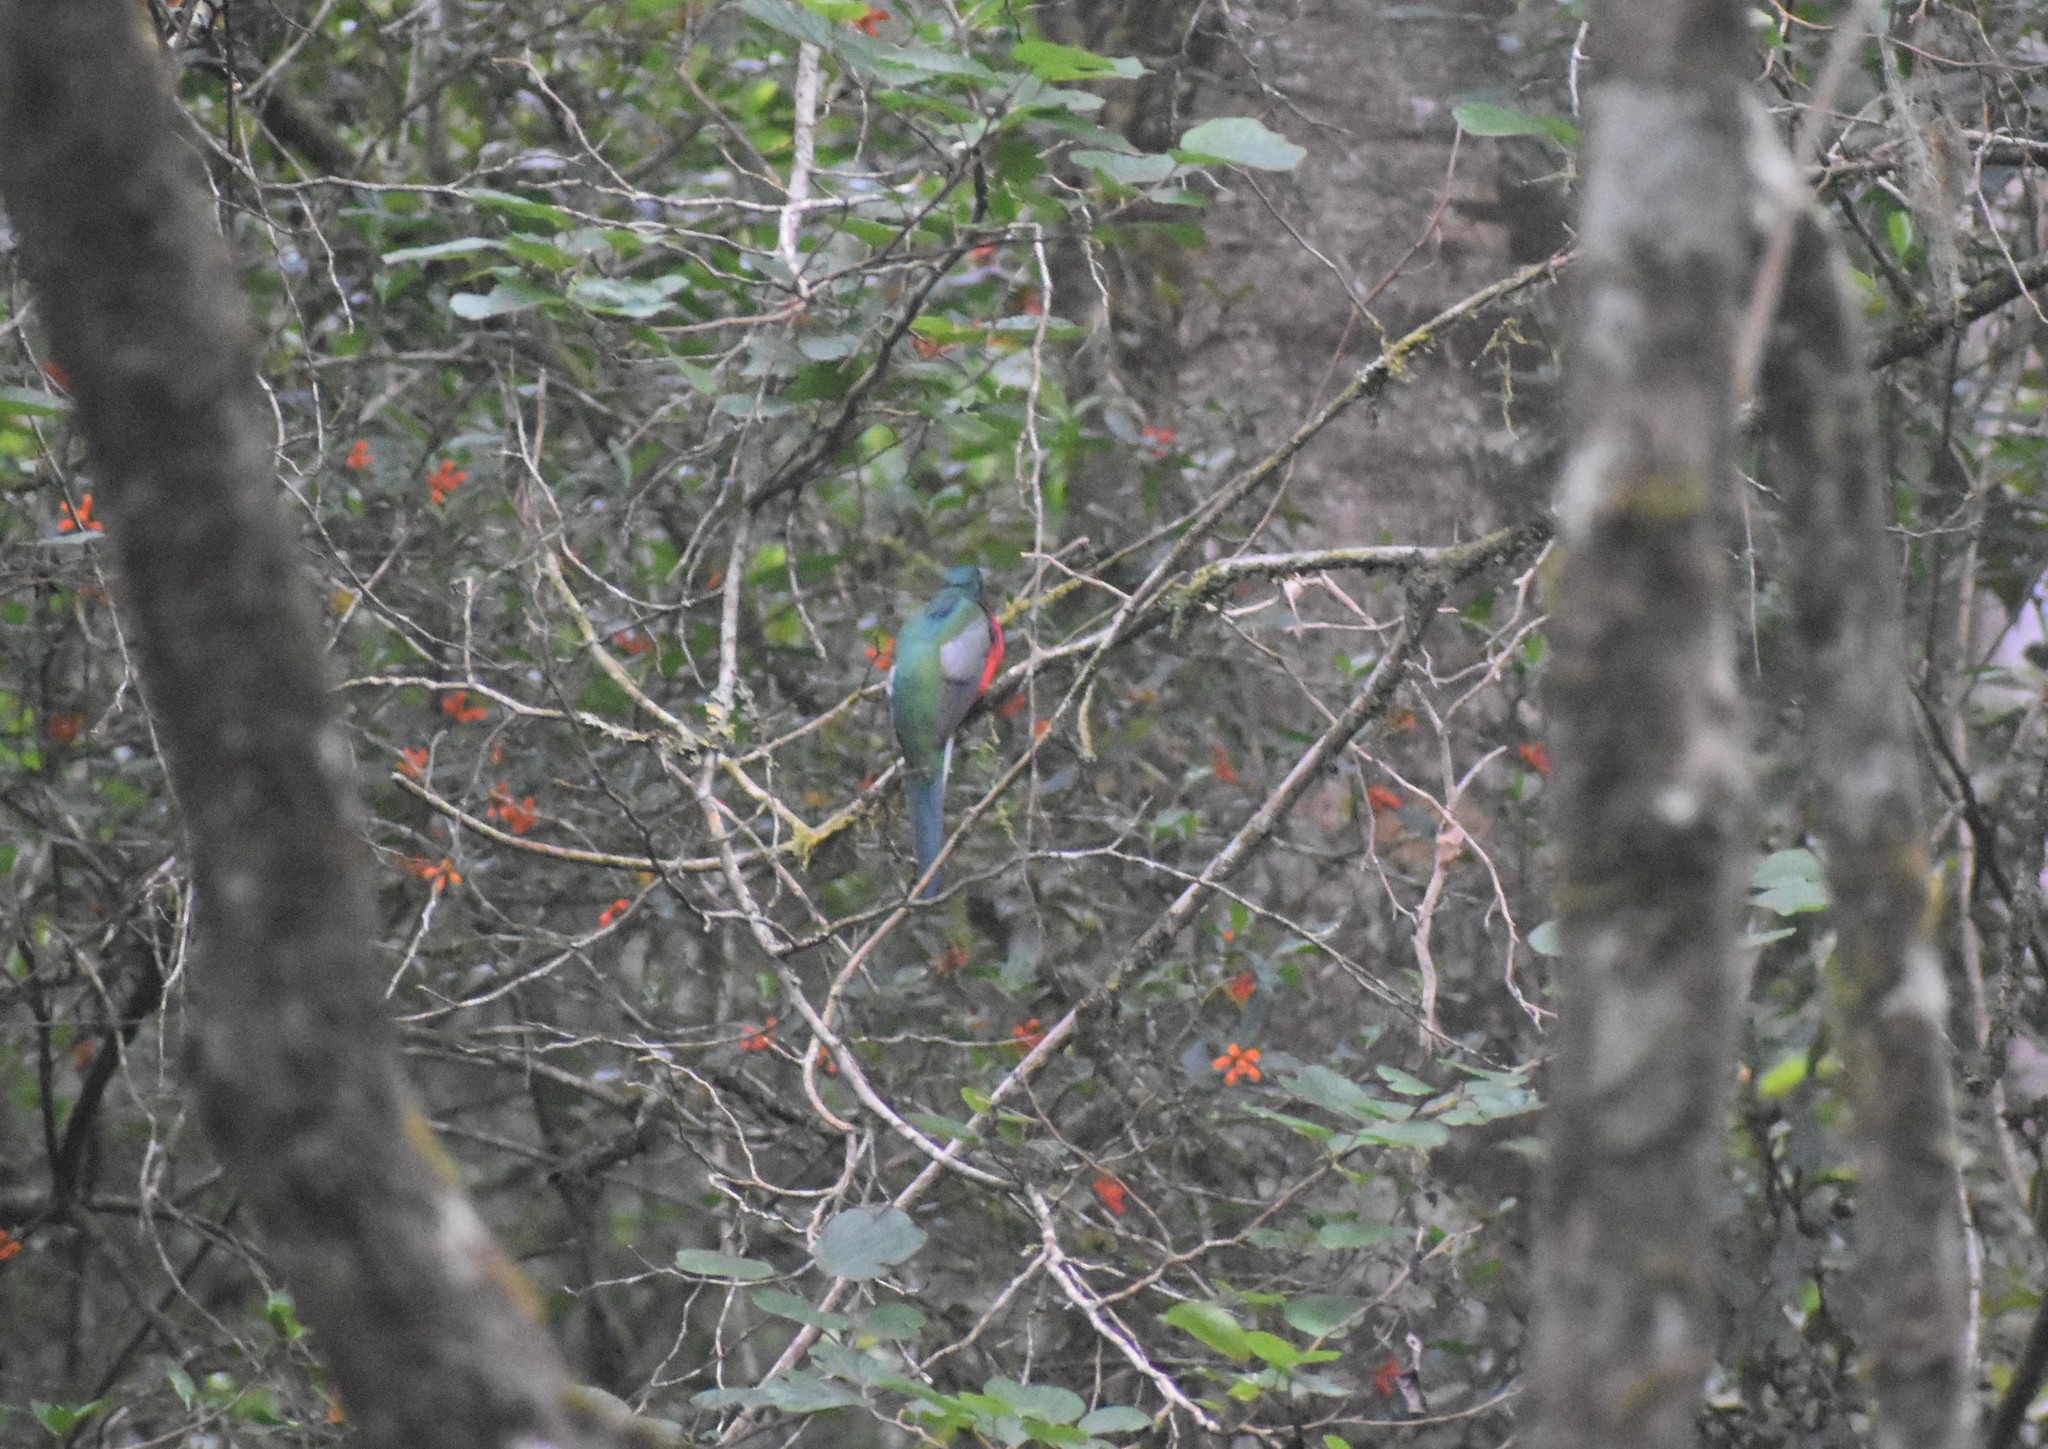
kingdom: Animalia
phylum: Chordata
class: Aves
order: Trogoniformes
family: Trogonidae
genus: Apaloderma
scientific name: Apaloderma narina
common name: Narina trogon
